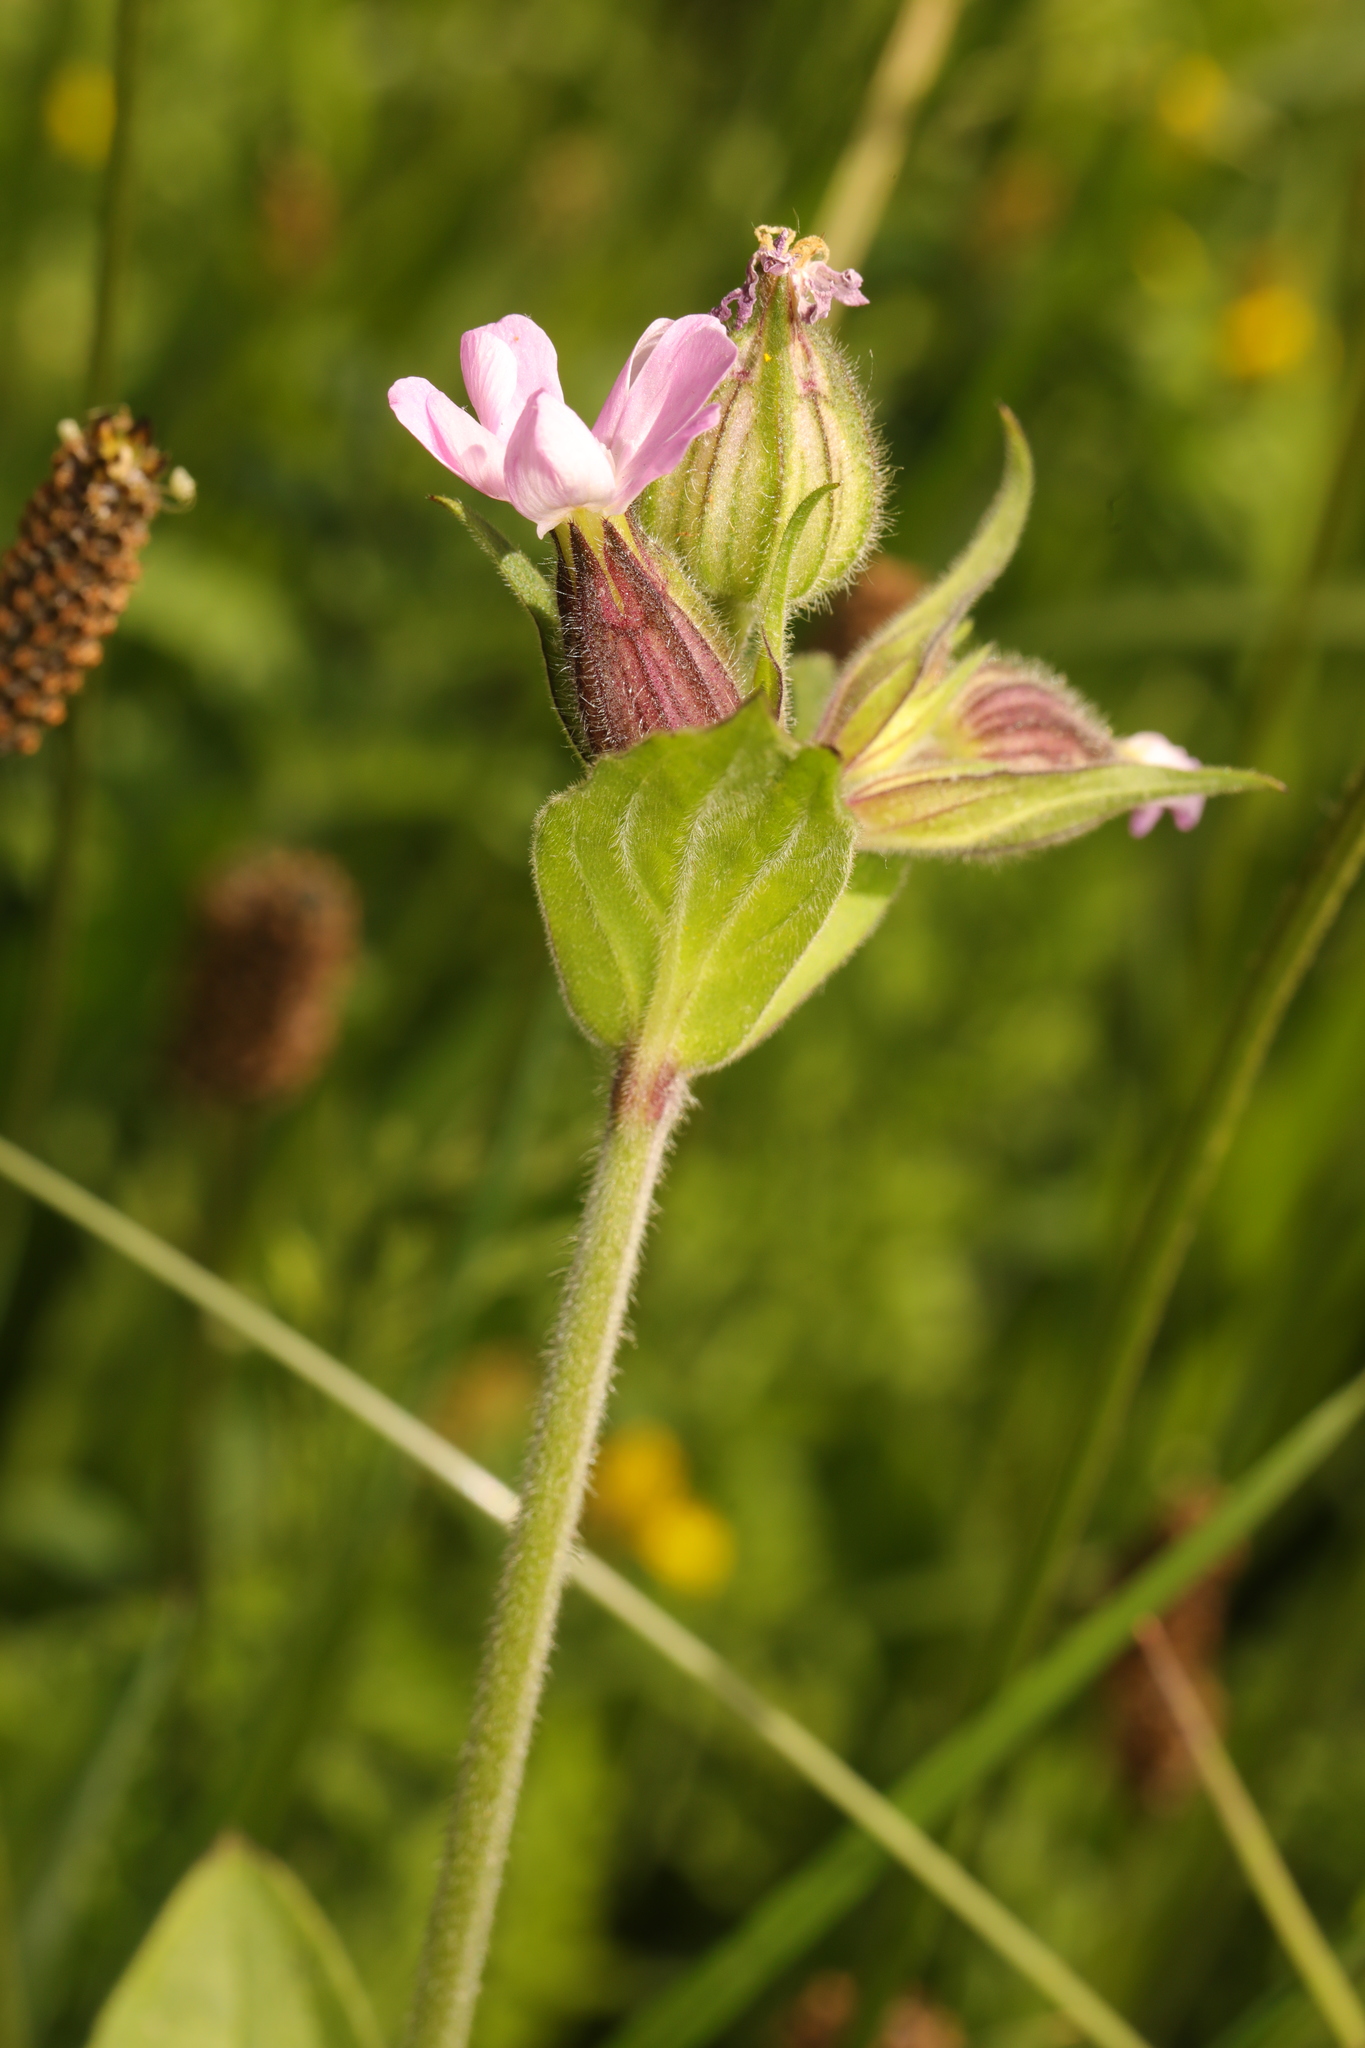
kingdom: Plantae
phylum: Tracheophyta
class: Magnoliopsida
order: Caryophyllales
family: Caryophyllaceae
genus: Silene
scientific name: Silene dioica
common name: Red campion
